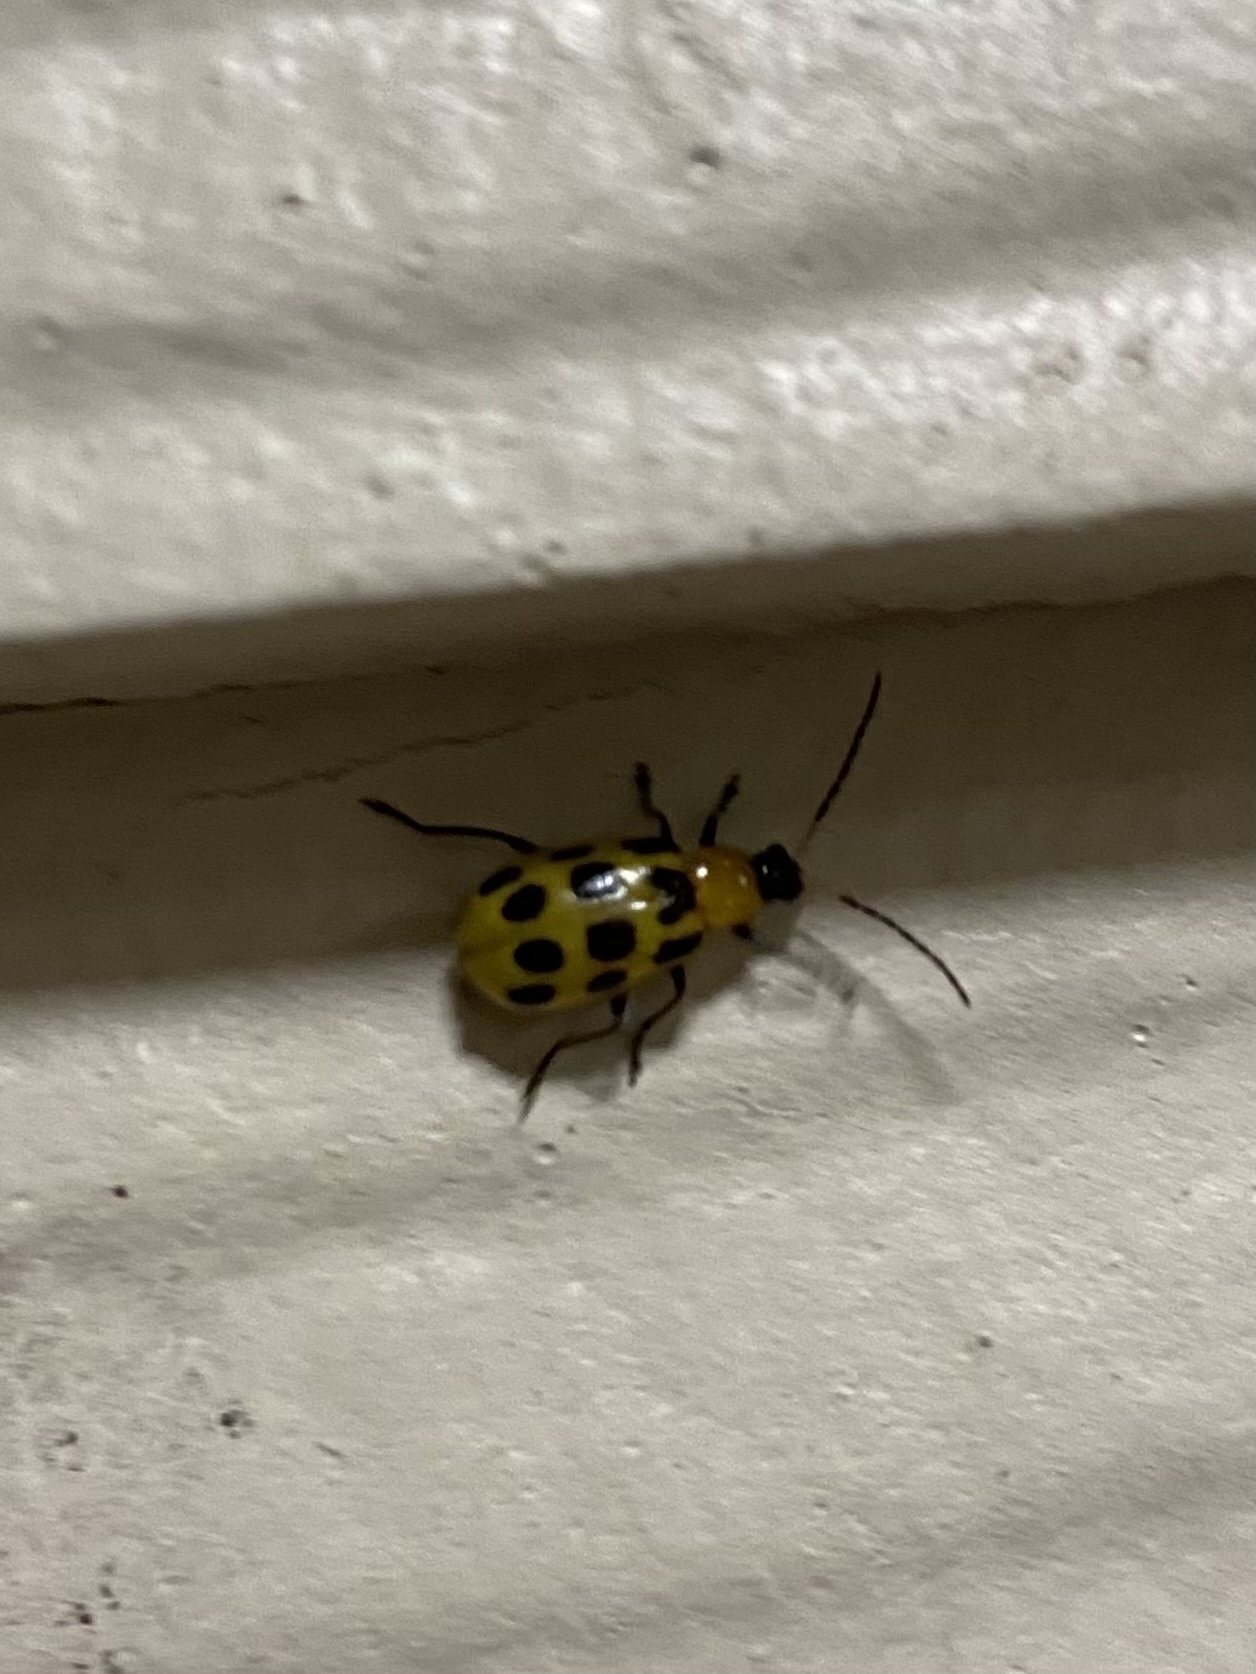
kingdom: Animalia
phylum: Arthropoda
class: Insecta
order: Coleoptera
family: Chrysomelidae
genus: Diabrotica
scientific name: Diabrotica undecimpunctata
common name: Spotted cucumber beetle
